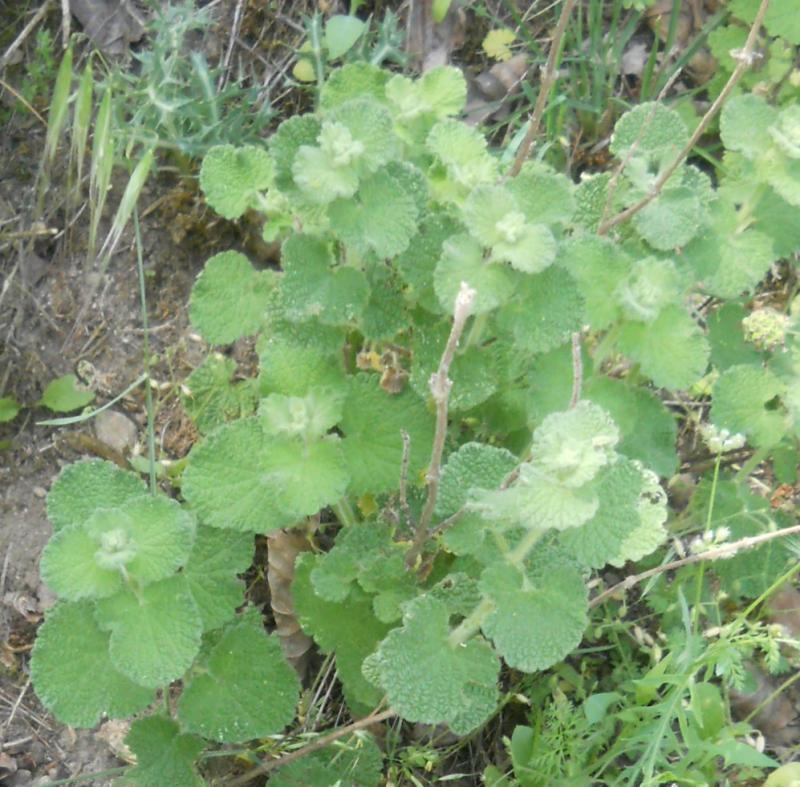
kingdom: Plantae
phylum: Tracheophyta
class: Magnoliopsida
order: Lamiales
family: Lamiaceae
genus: Marrubium
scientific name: Marrubium vulgare
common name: Horehound
